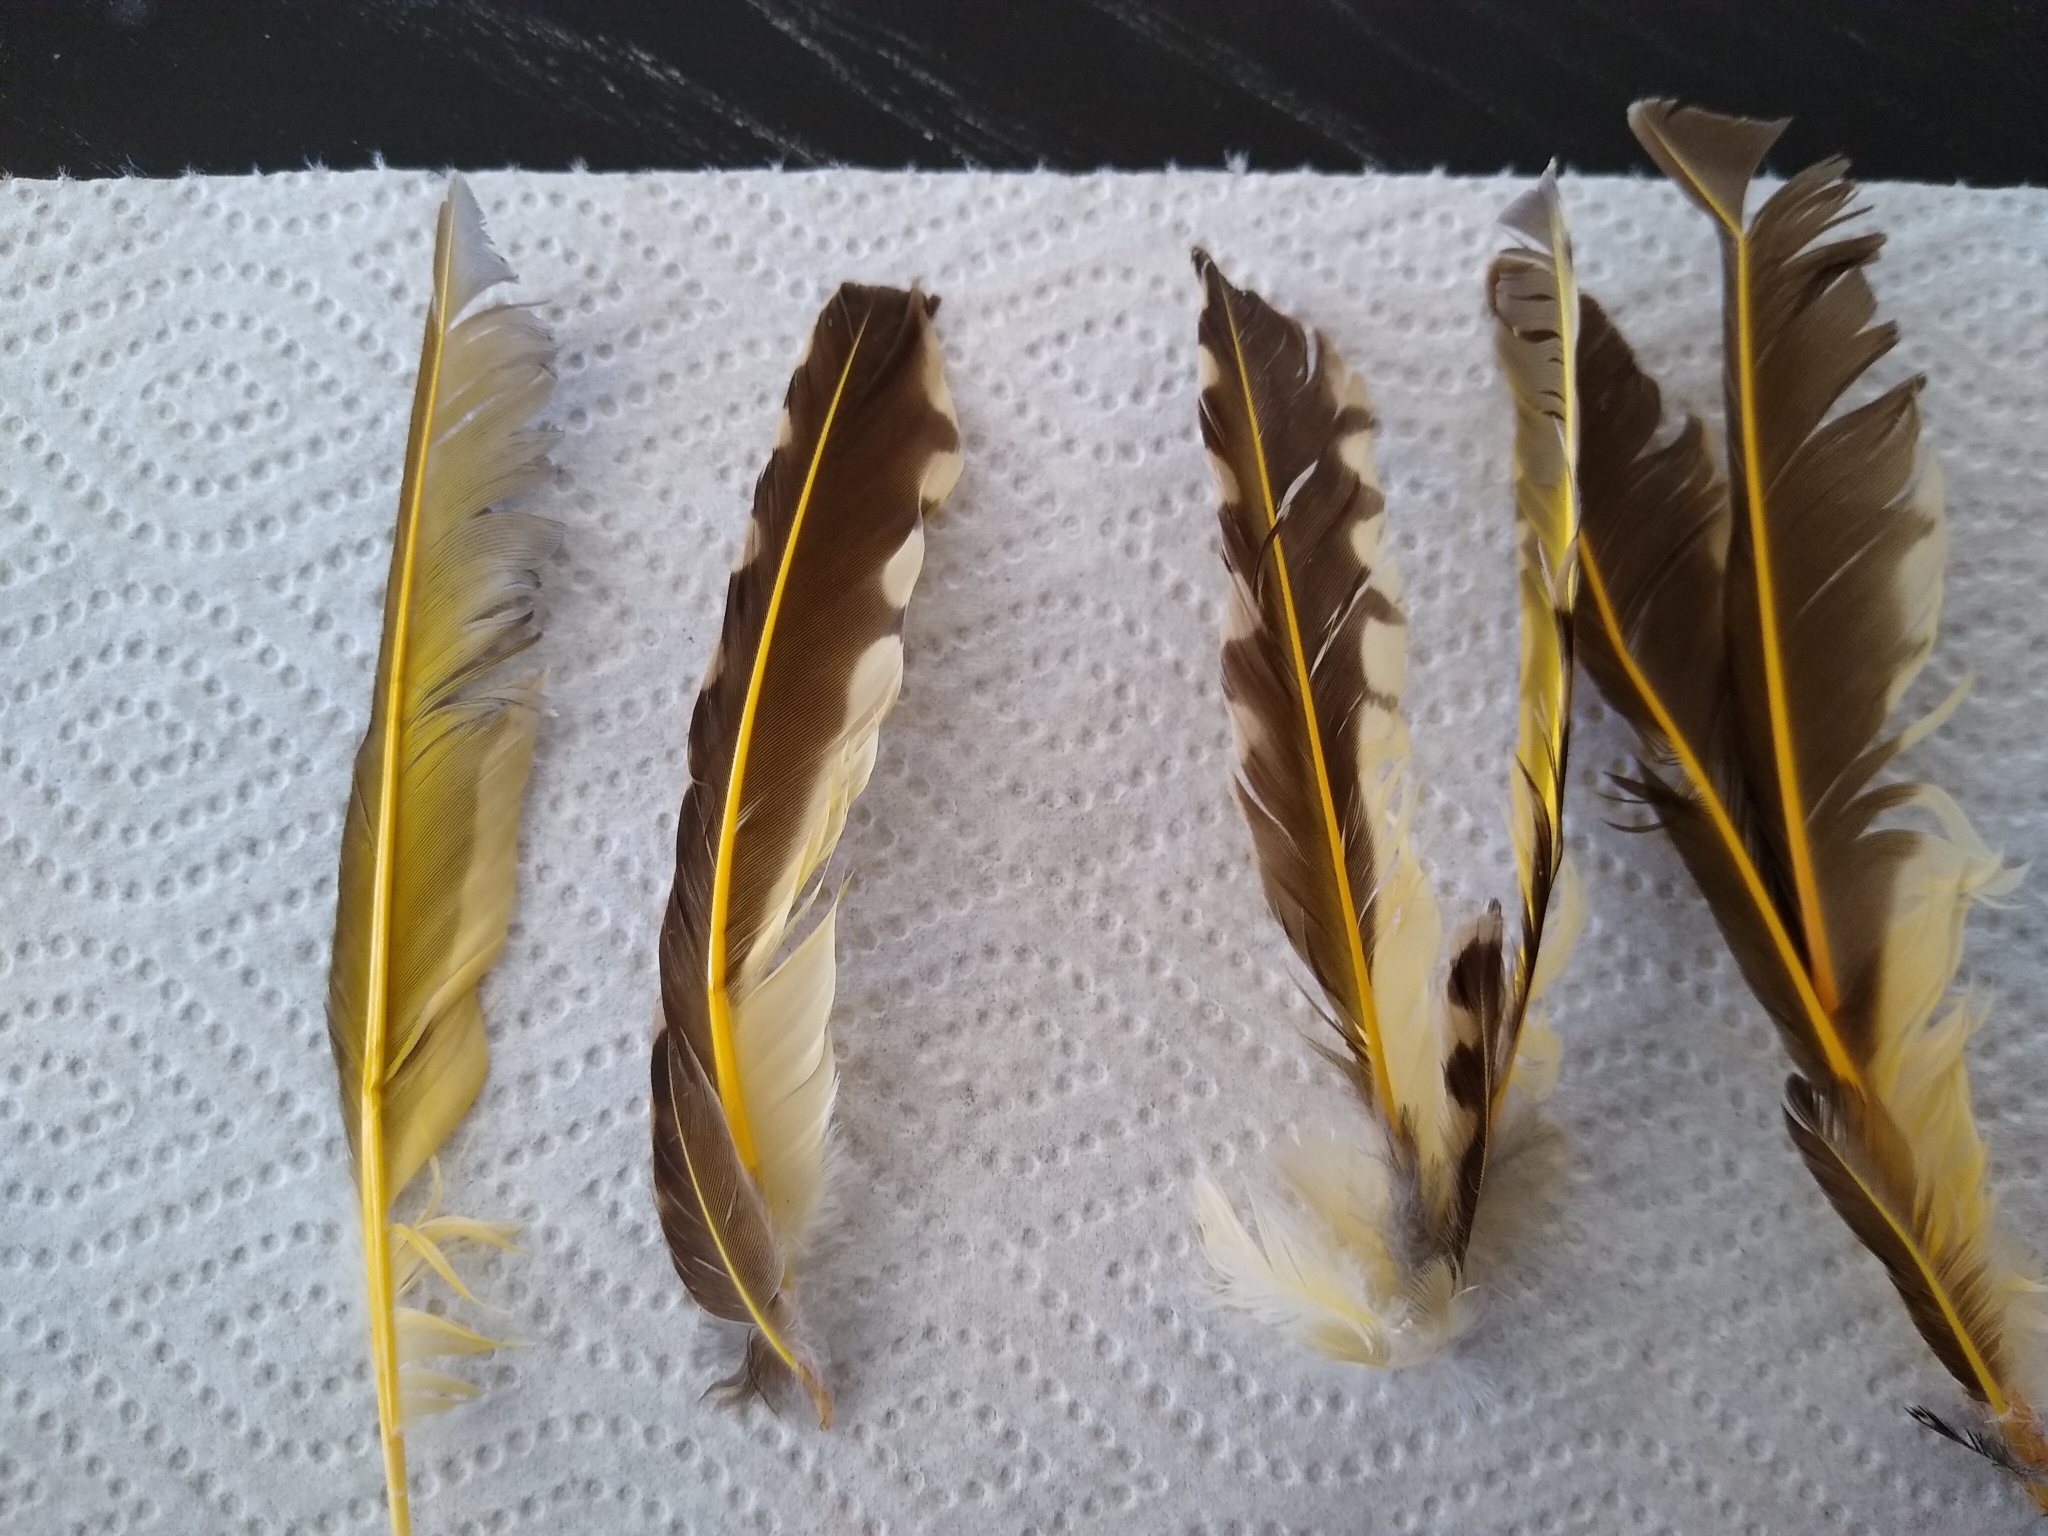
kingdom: Animalia
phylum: Chordata
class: Aves
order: Piciformes
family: Picidae
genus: Colaptes
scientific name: Colaptes auratus
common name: Northern flicker
